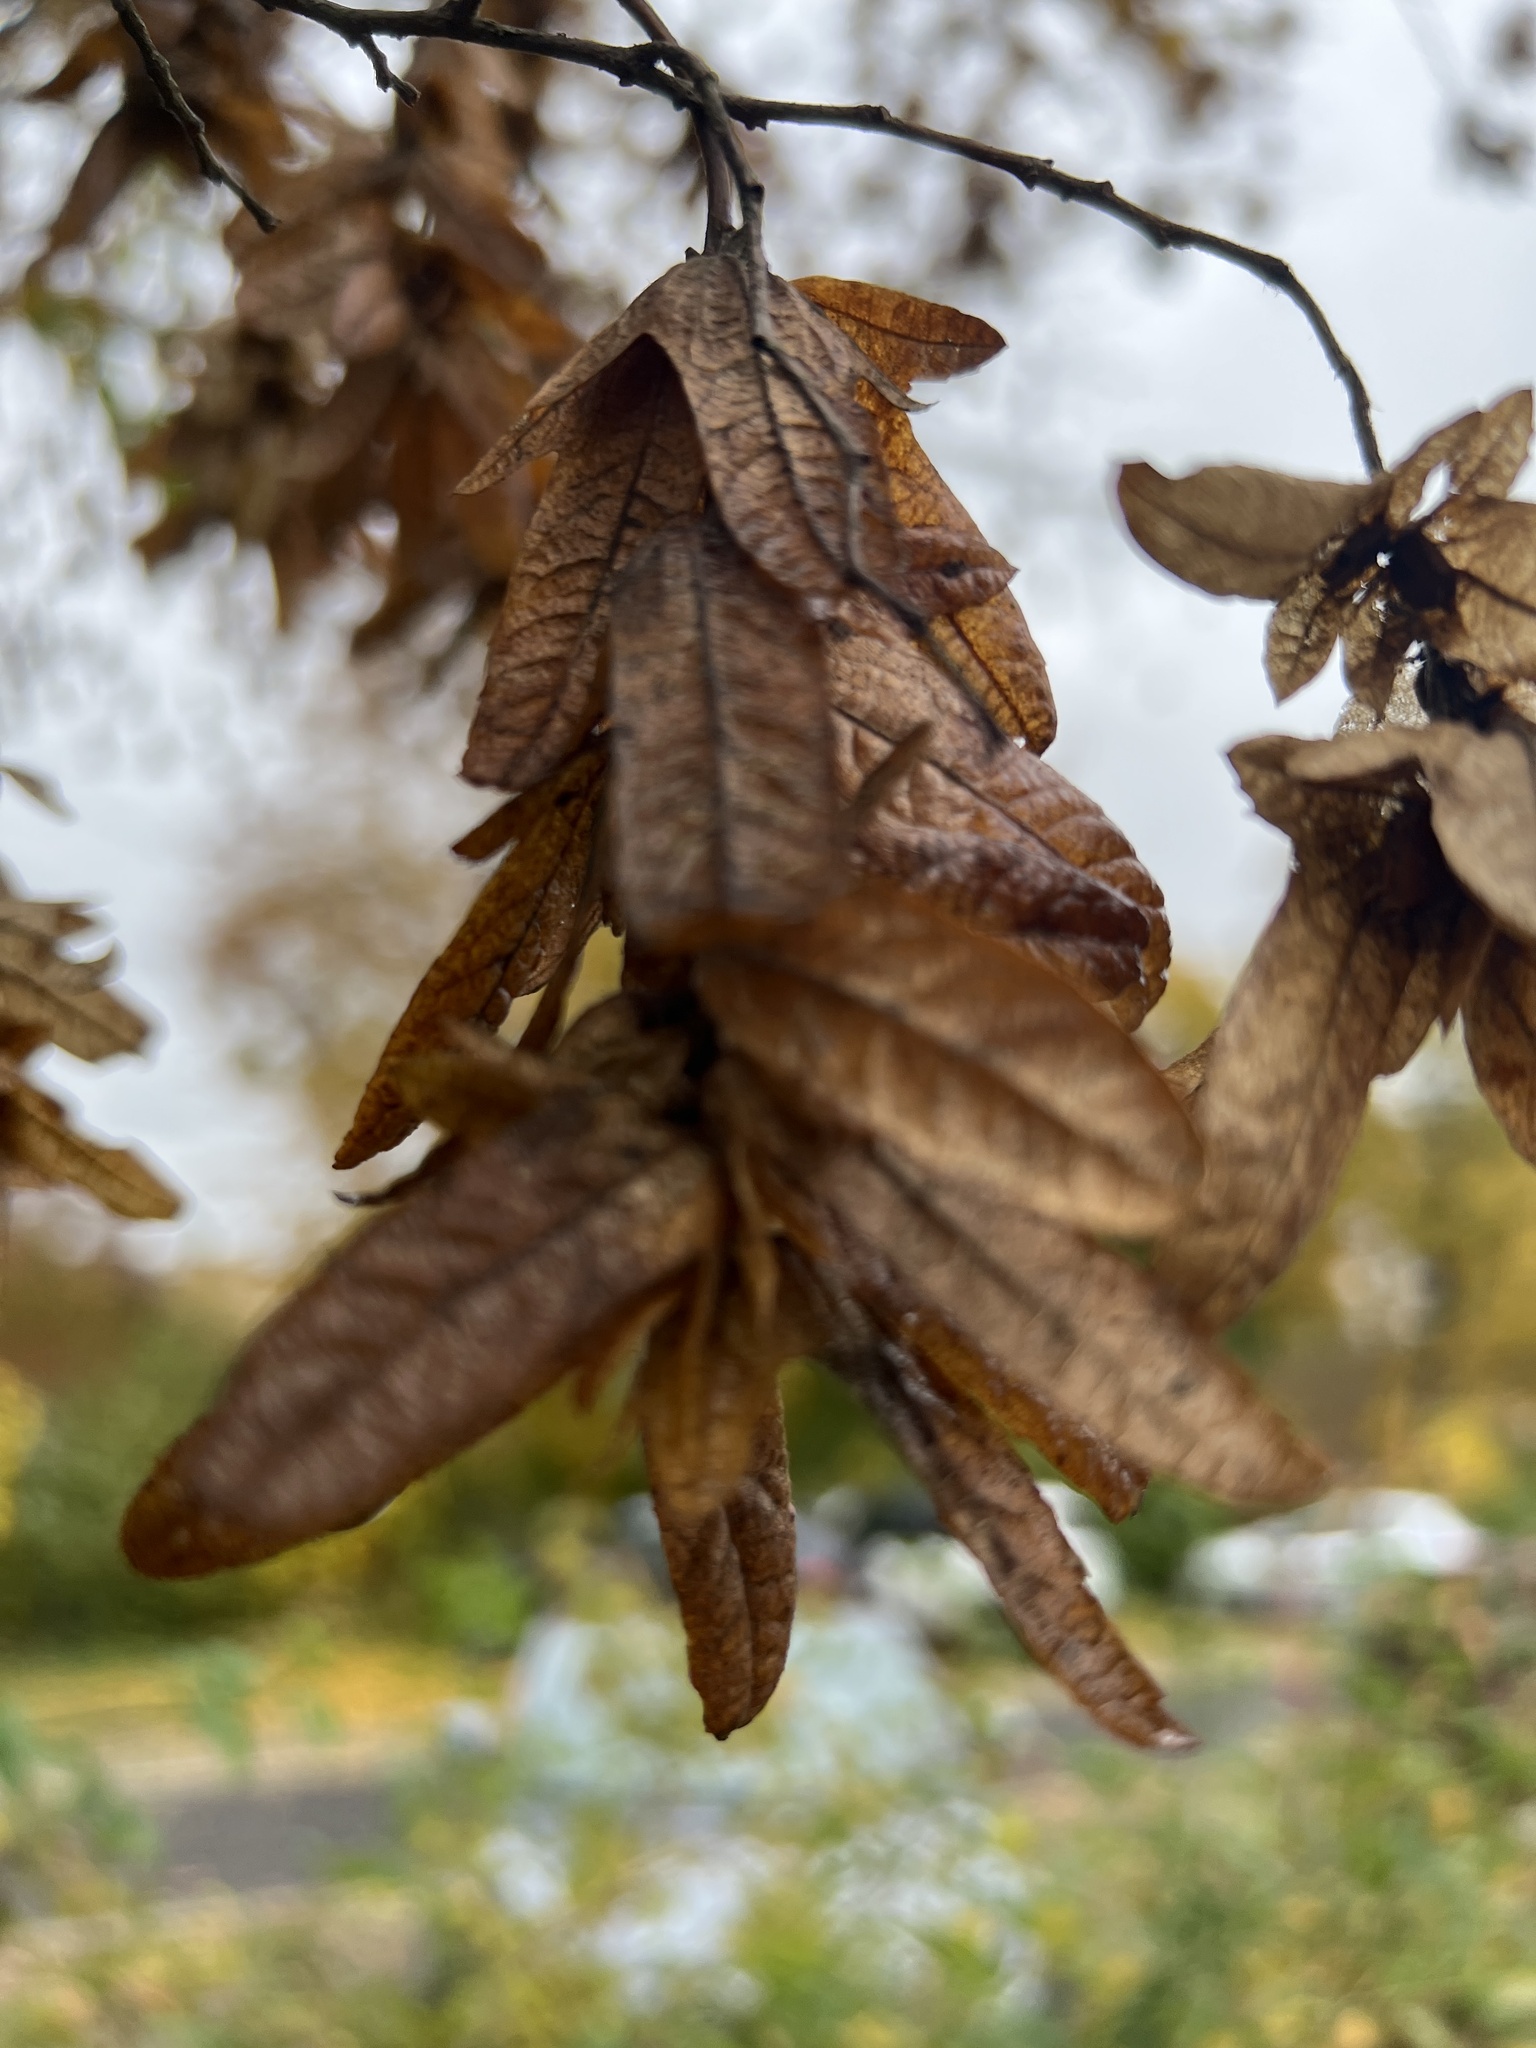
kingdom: Plantae
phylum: Tracheophyta
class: Magnoliopsida
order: Fagales
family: Betulaceae
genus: Carpinus
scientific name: Carpinus betulus
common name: Hornbeam
